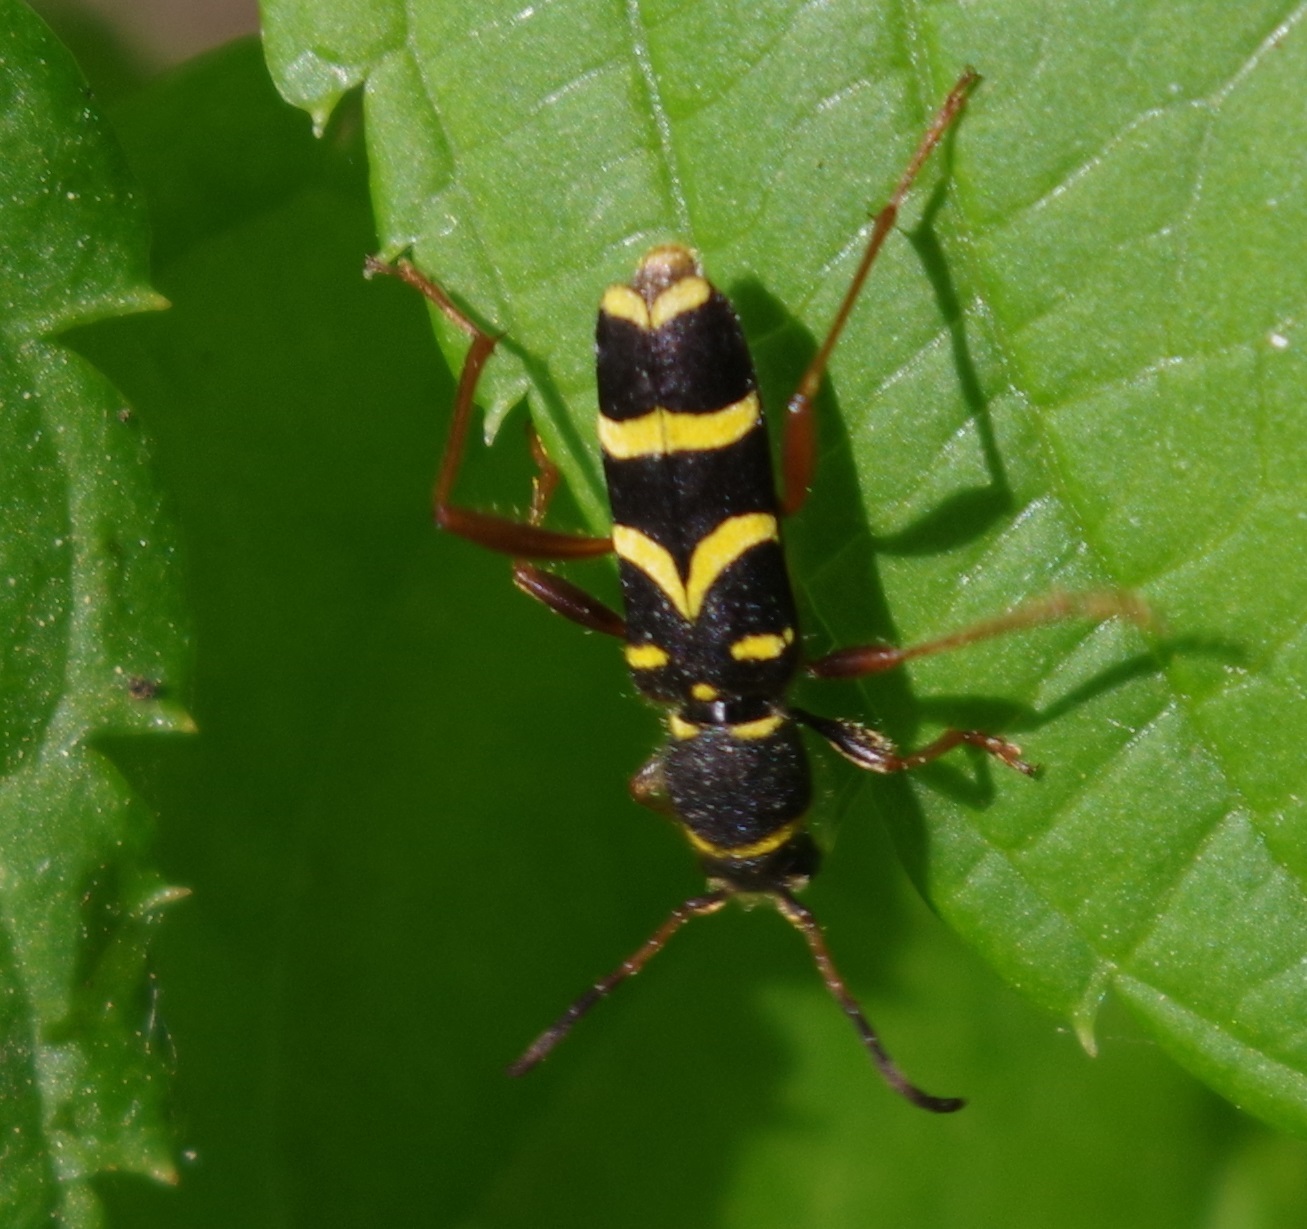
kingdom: Animalia
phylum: Arthropoda
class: Insecta
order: Coleoptera
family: Cerambycidae
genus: Clytus
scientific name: Clytus arietis
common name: Wasp beetle
